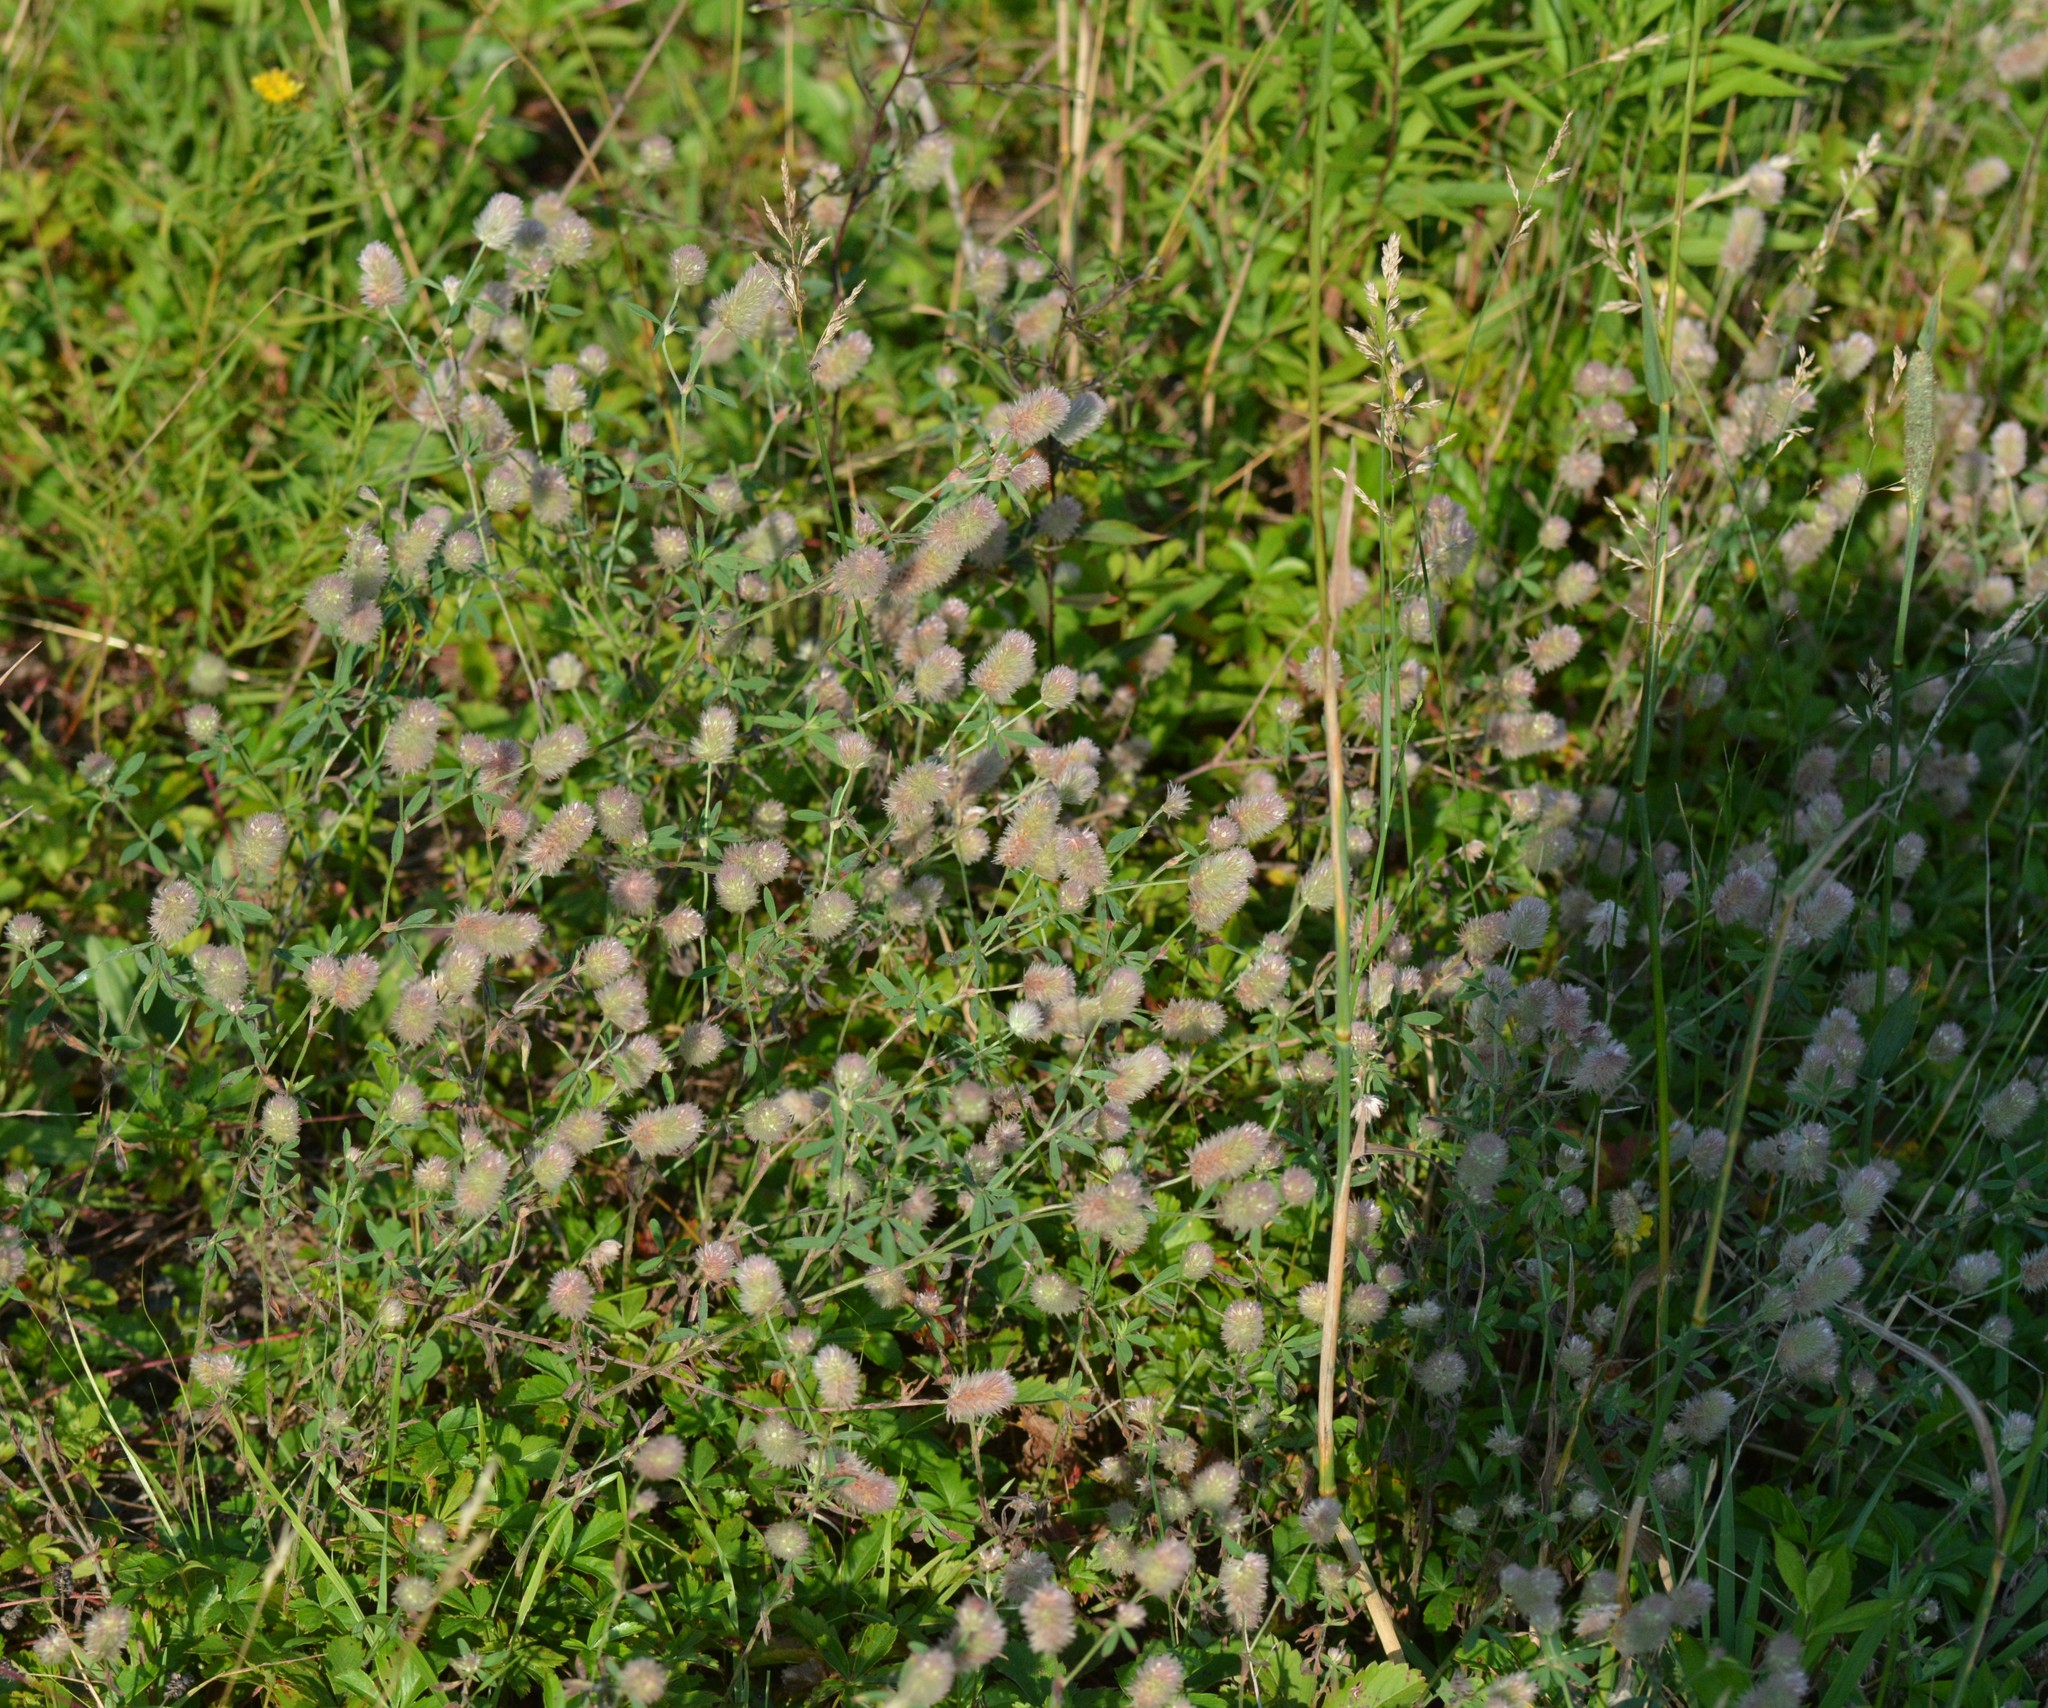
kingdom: Plantae
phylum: Tracheophyta
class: Magnoliopsida
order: Fabales
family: Fabaceae
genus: Trifolium
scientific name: Trifolium arvense
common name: Hare's-foot clover
